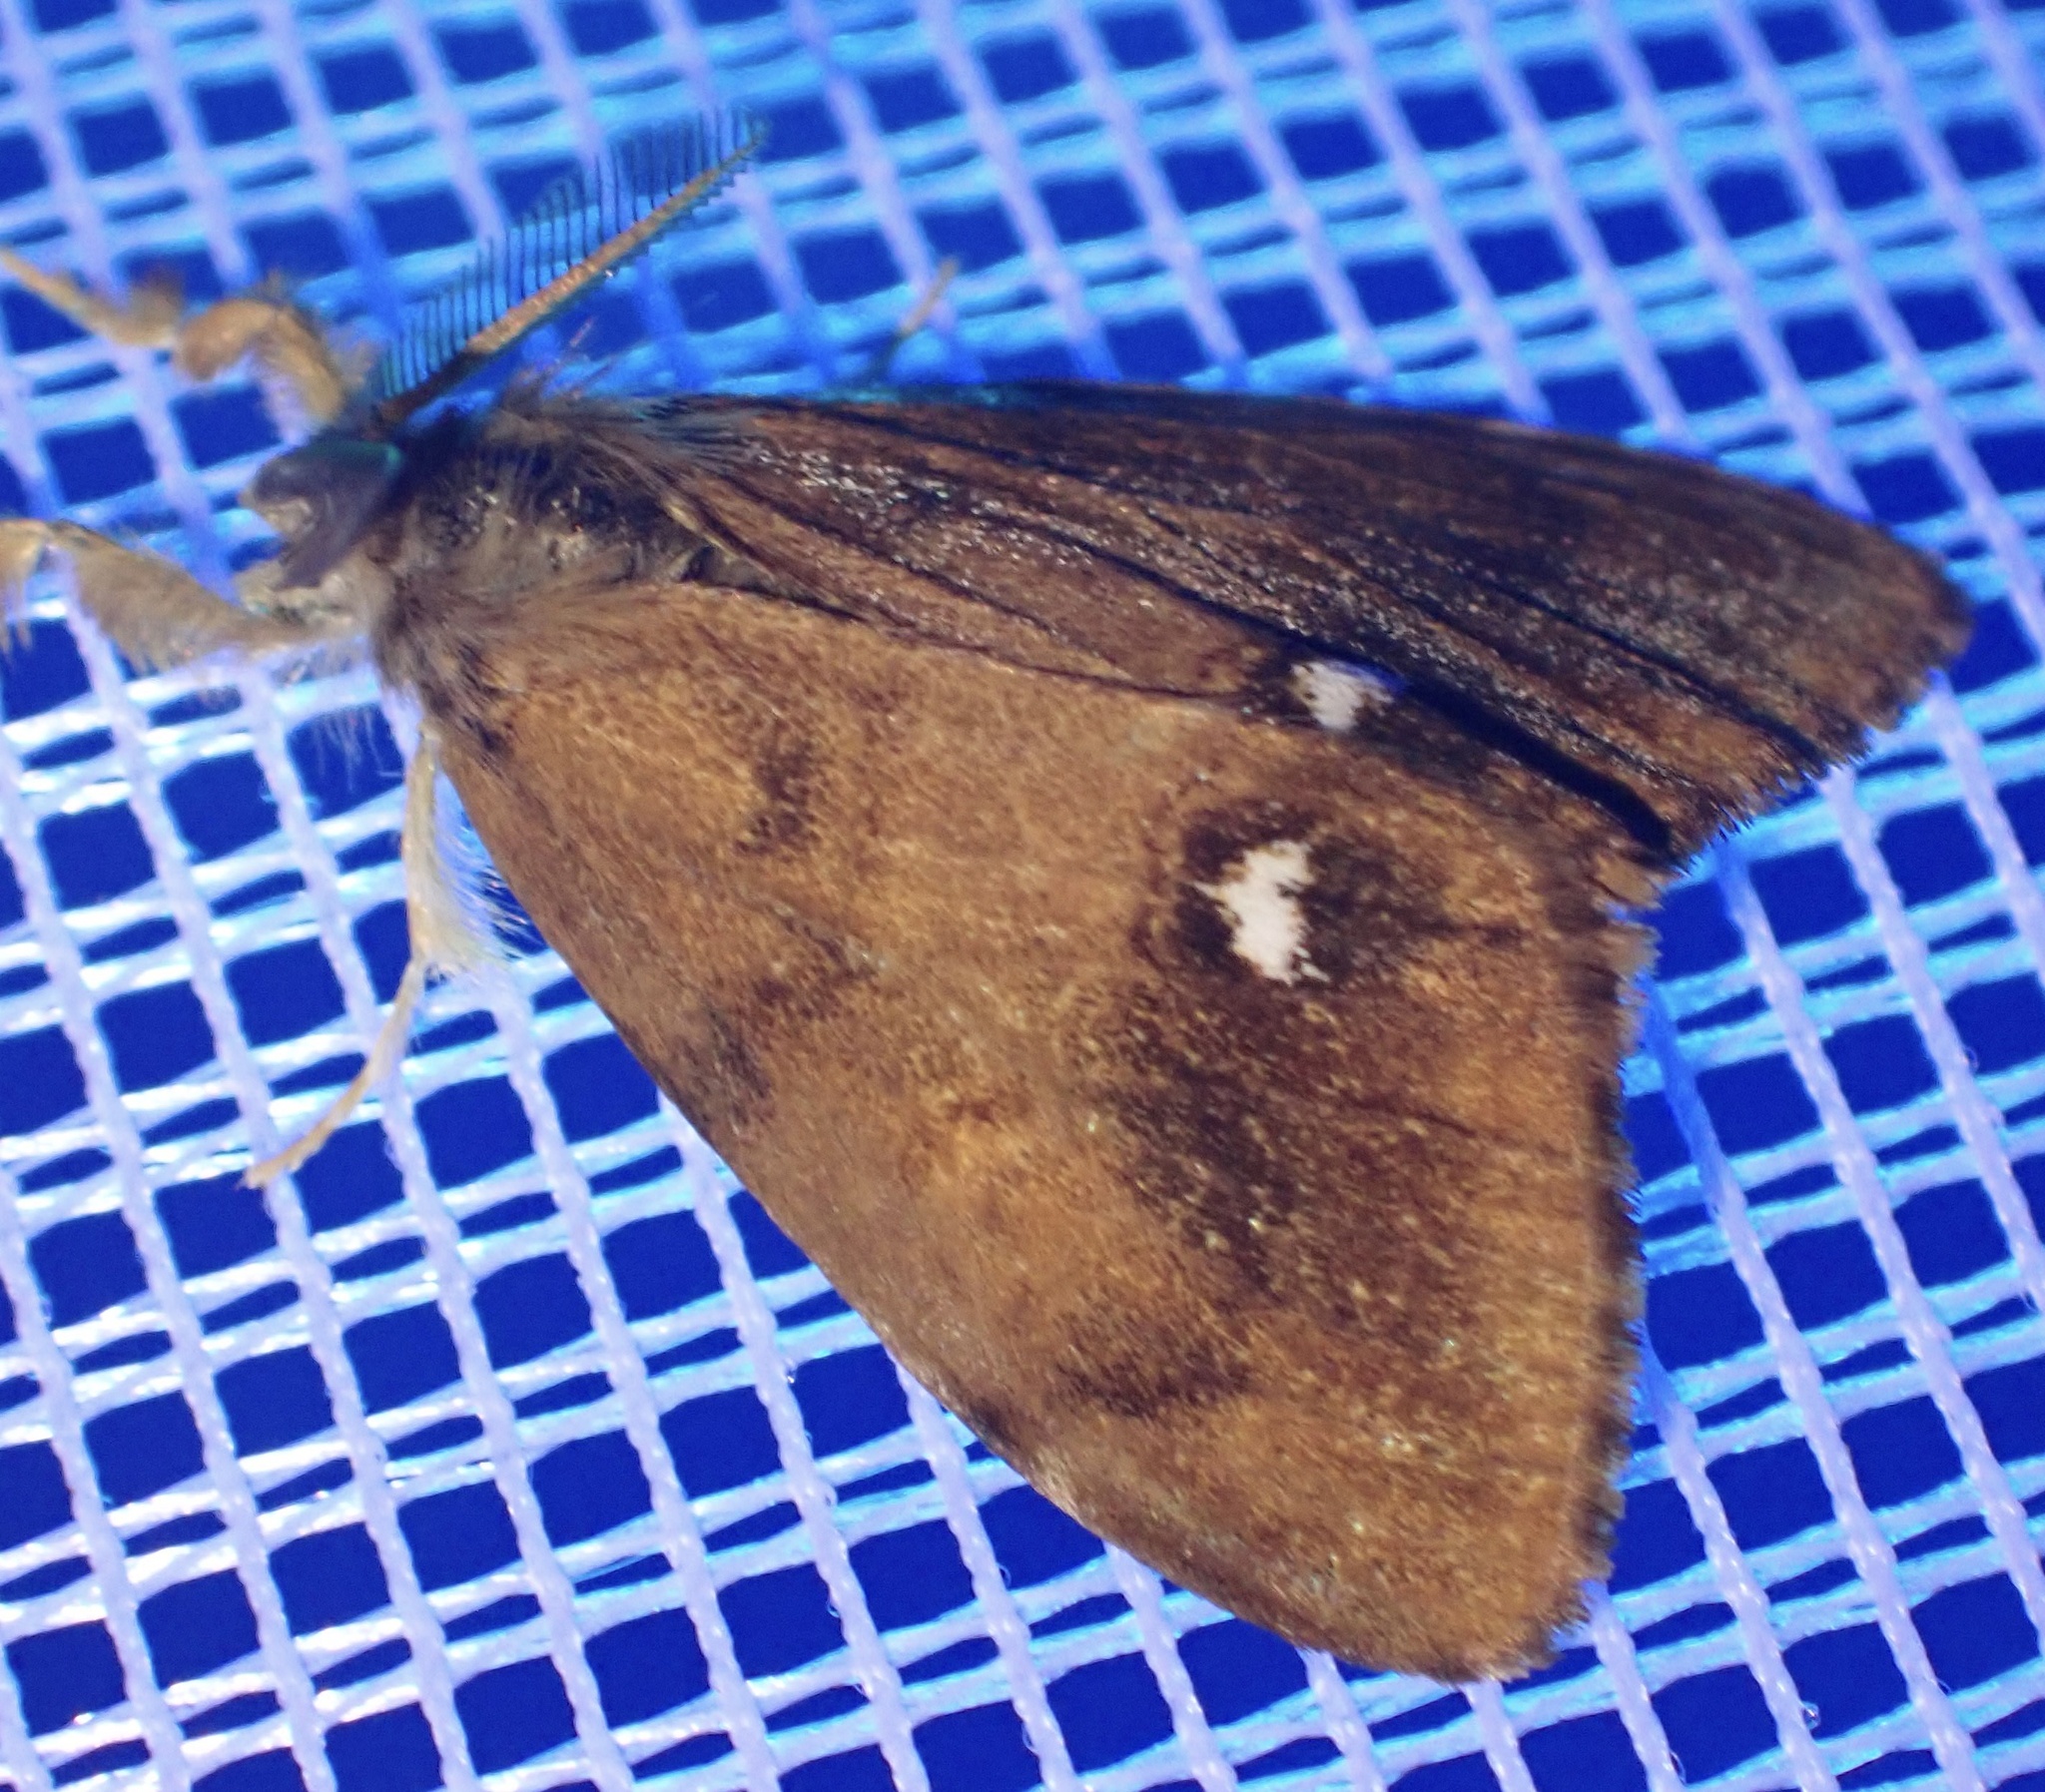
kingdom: Animalia
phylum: Arthropoda
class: Insecta
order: Lepidoptera
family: Erebidae
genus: Orgyia
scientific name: Orgyia antiqua
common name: Vapourer
